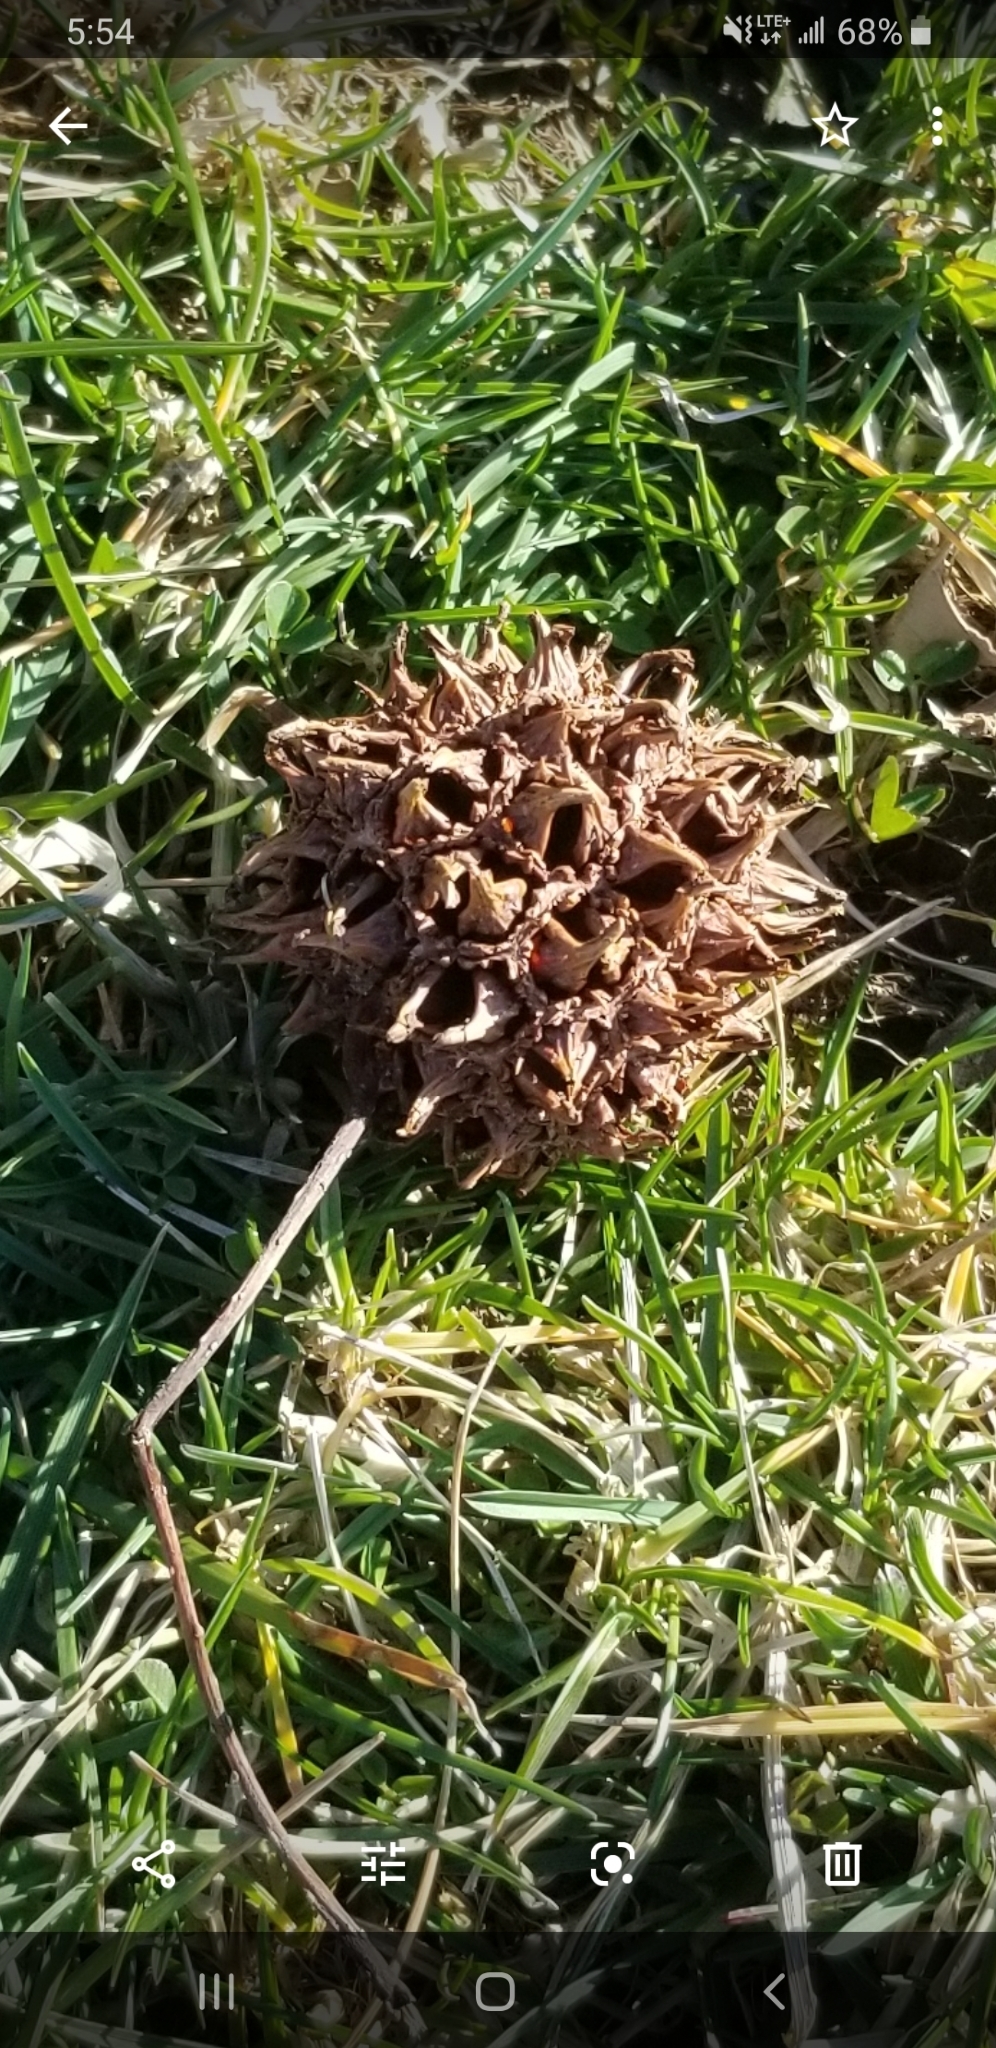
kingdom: Plantae
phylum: Tracheophyta
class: Magnoliopsida
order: Saxifragales
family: Altingiaceae
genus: Liquidambar
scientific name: Liquidambar styraciflua
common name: Sweet gum
